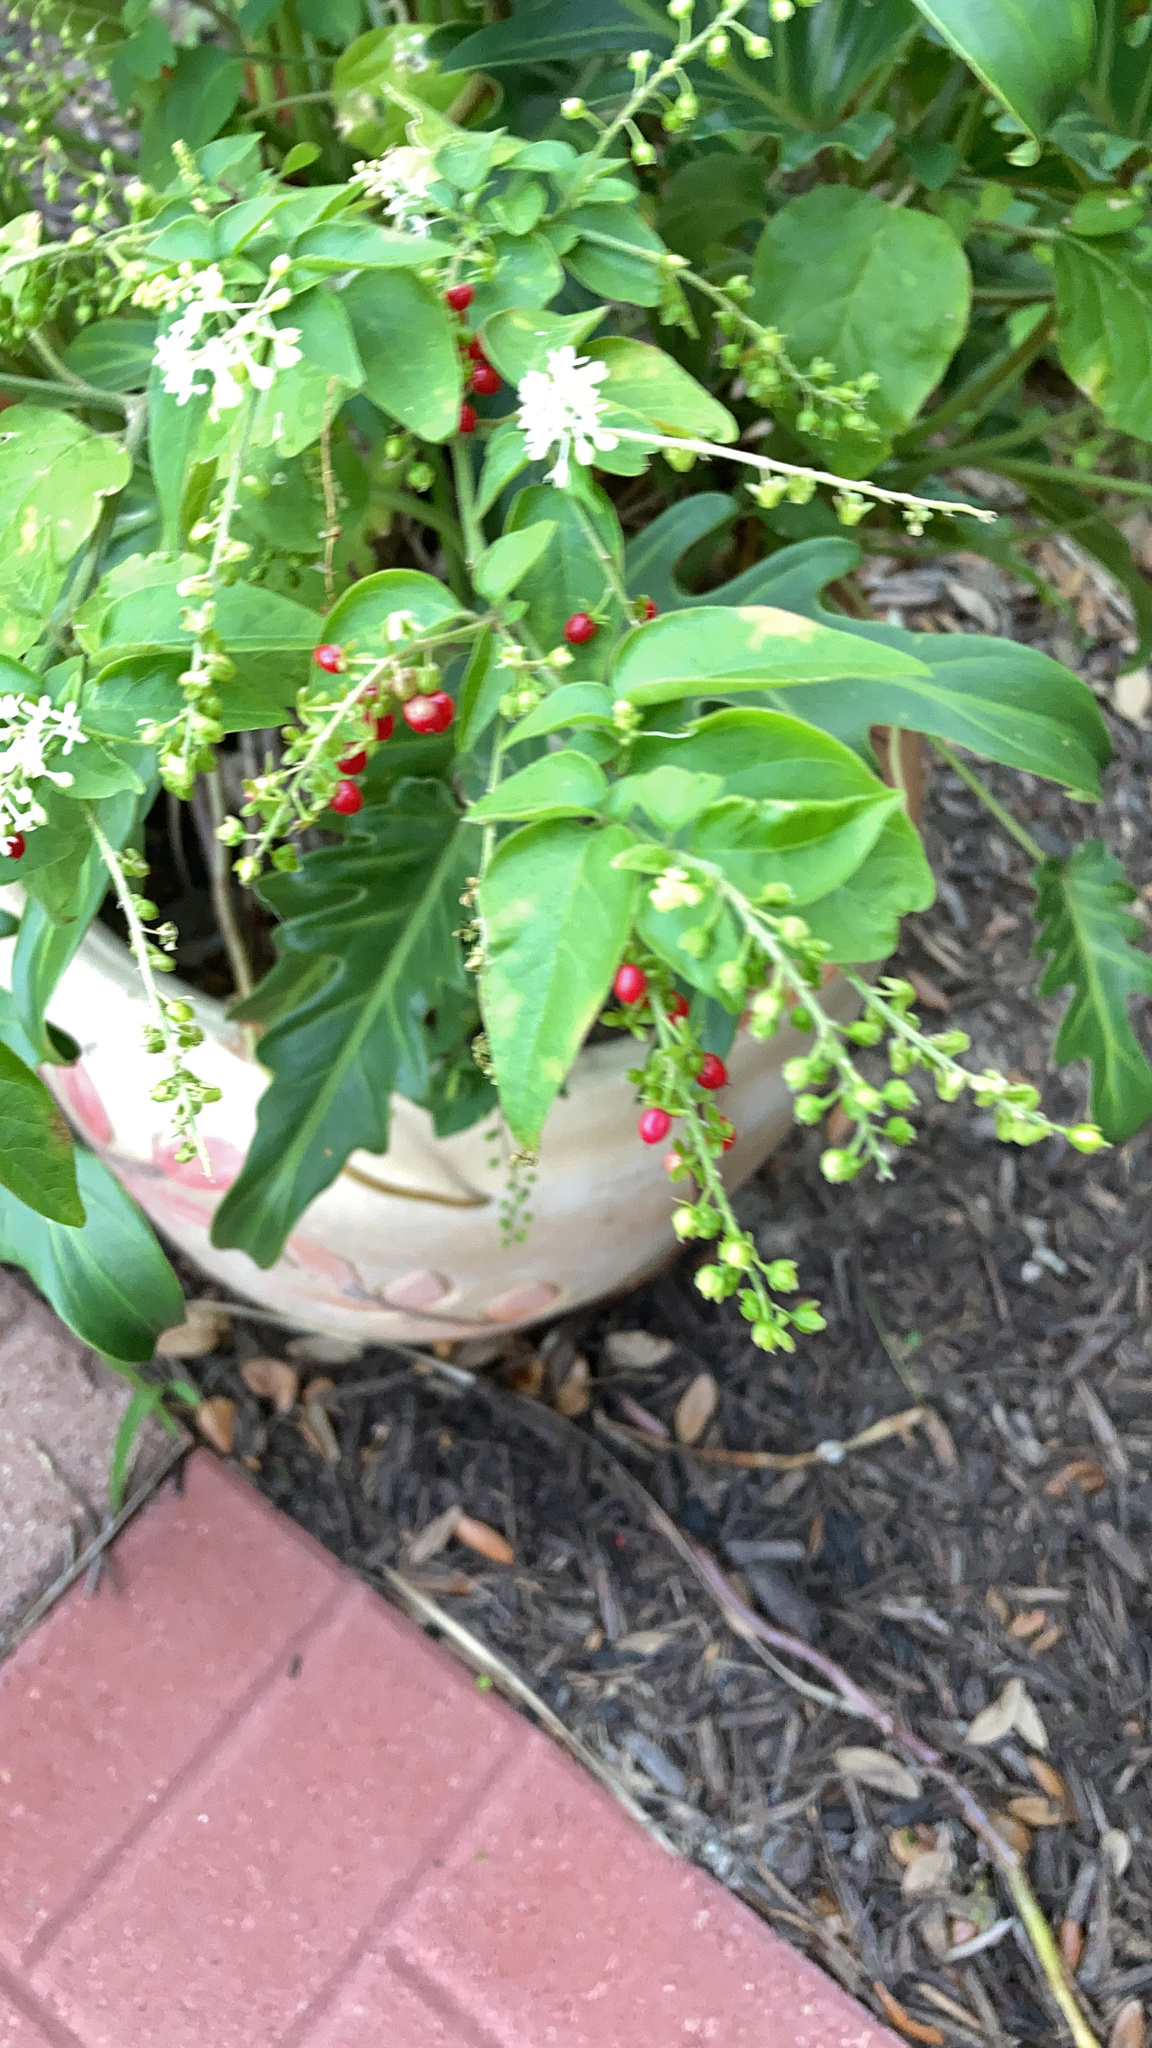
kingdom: Plantae
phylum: Tracheophyta
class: Magnoliopsida
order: Caryophyllales
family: Phytolaccaceae
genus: Rivina
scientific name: Rivina humilis
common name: Rougeplant
